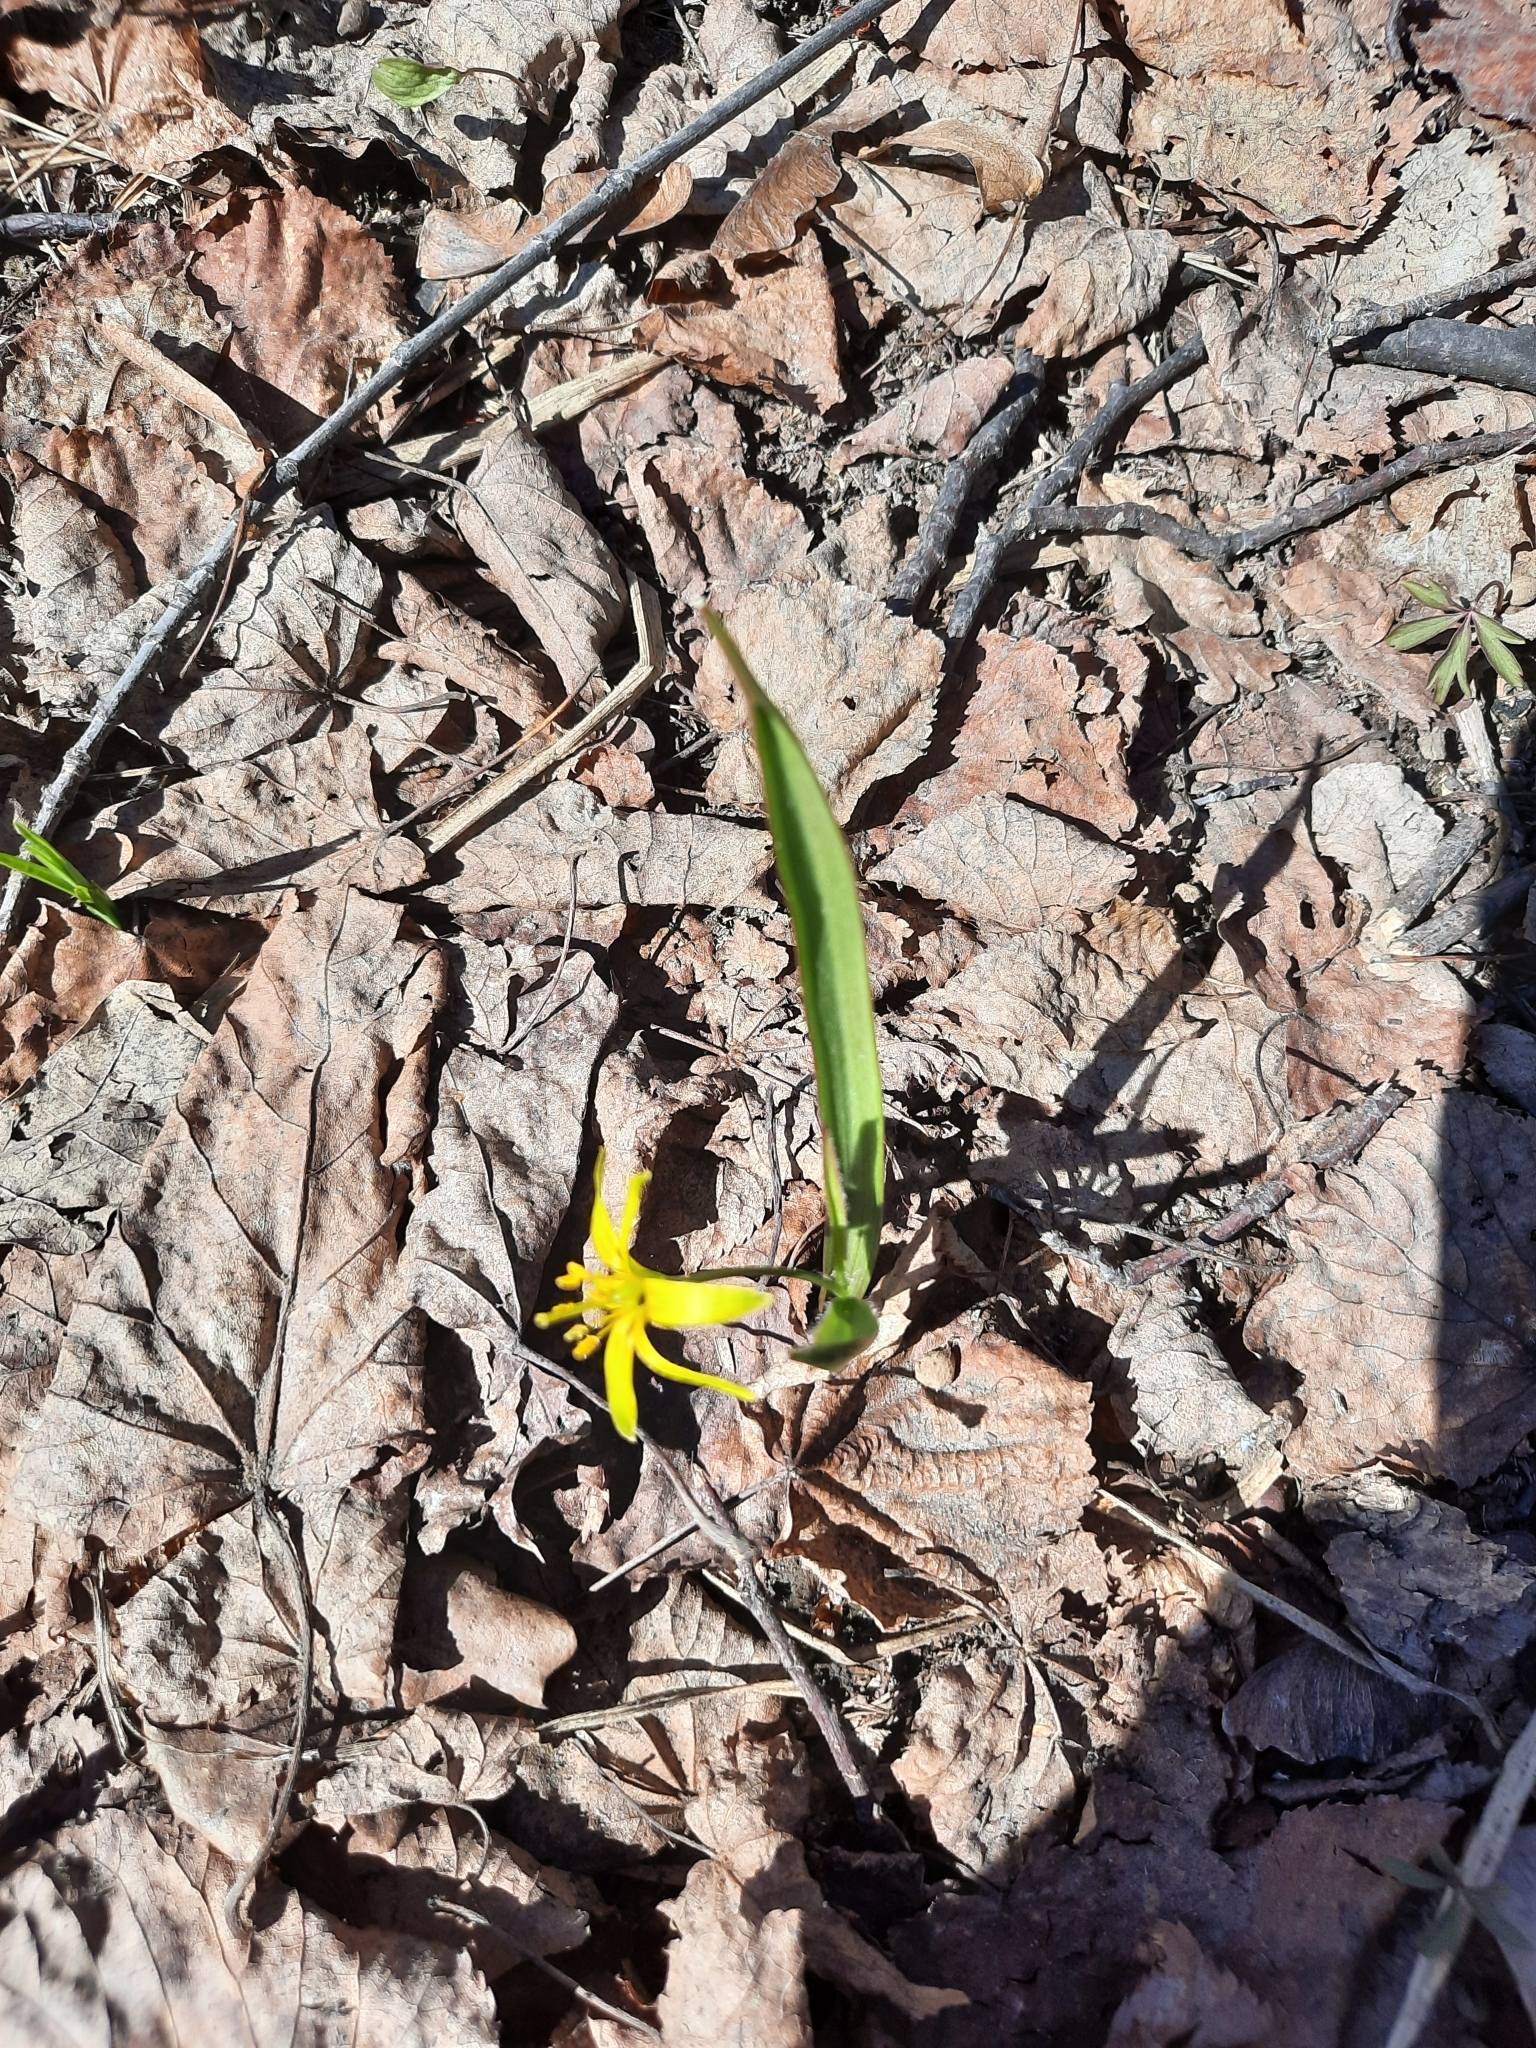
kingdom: Plantae
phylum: Tracheophyta
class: Liliopsida
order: Liliales
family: Liliaceae
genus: Gagea
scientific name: Gagea lutea
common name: Yellow star-of-bethlehem
